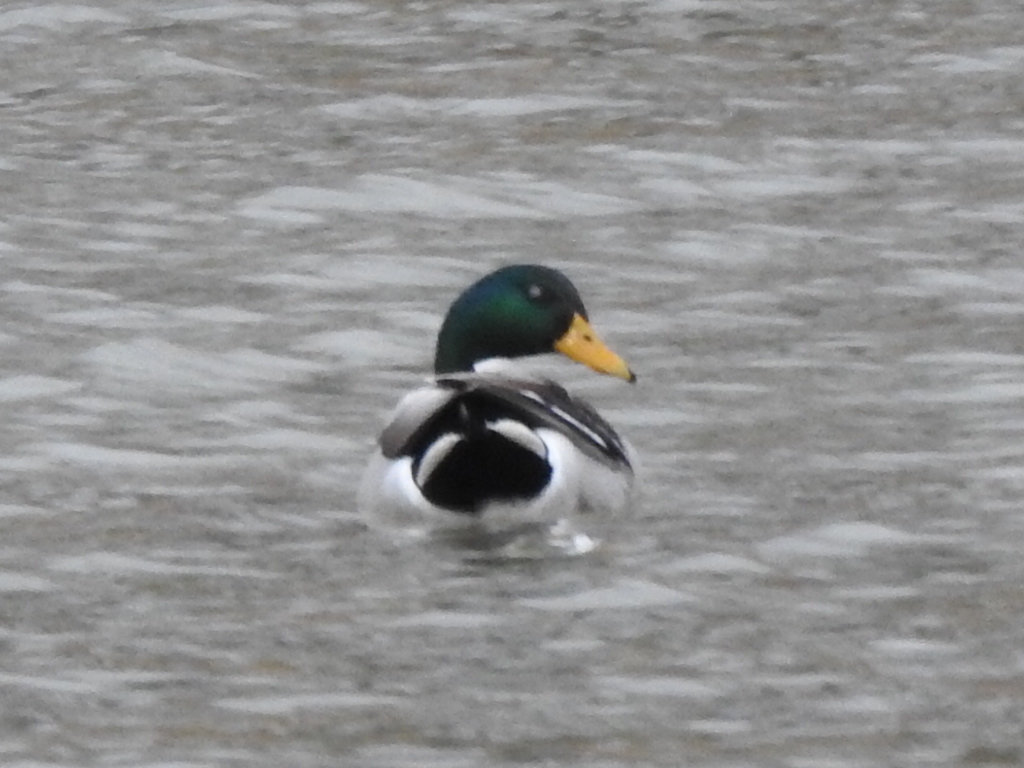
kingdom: Animalia
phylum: Chordata
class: Aves
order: Anseriformes
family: Anatidae
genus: Anas
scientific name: Anas platyrhynchos
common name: Mallard
